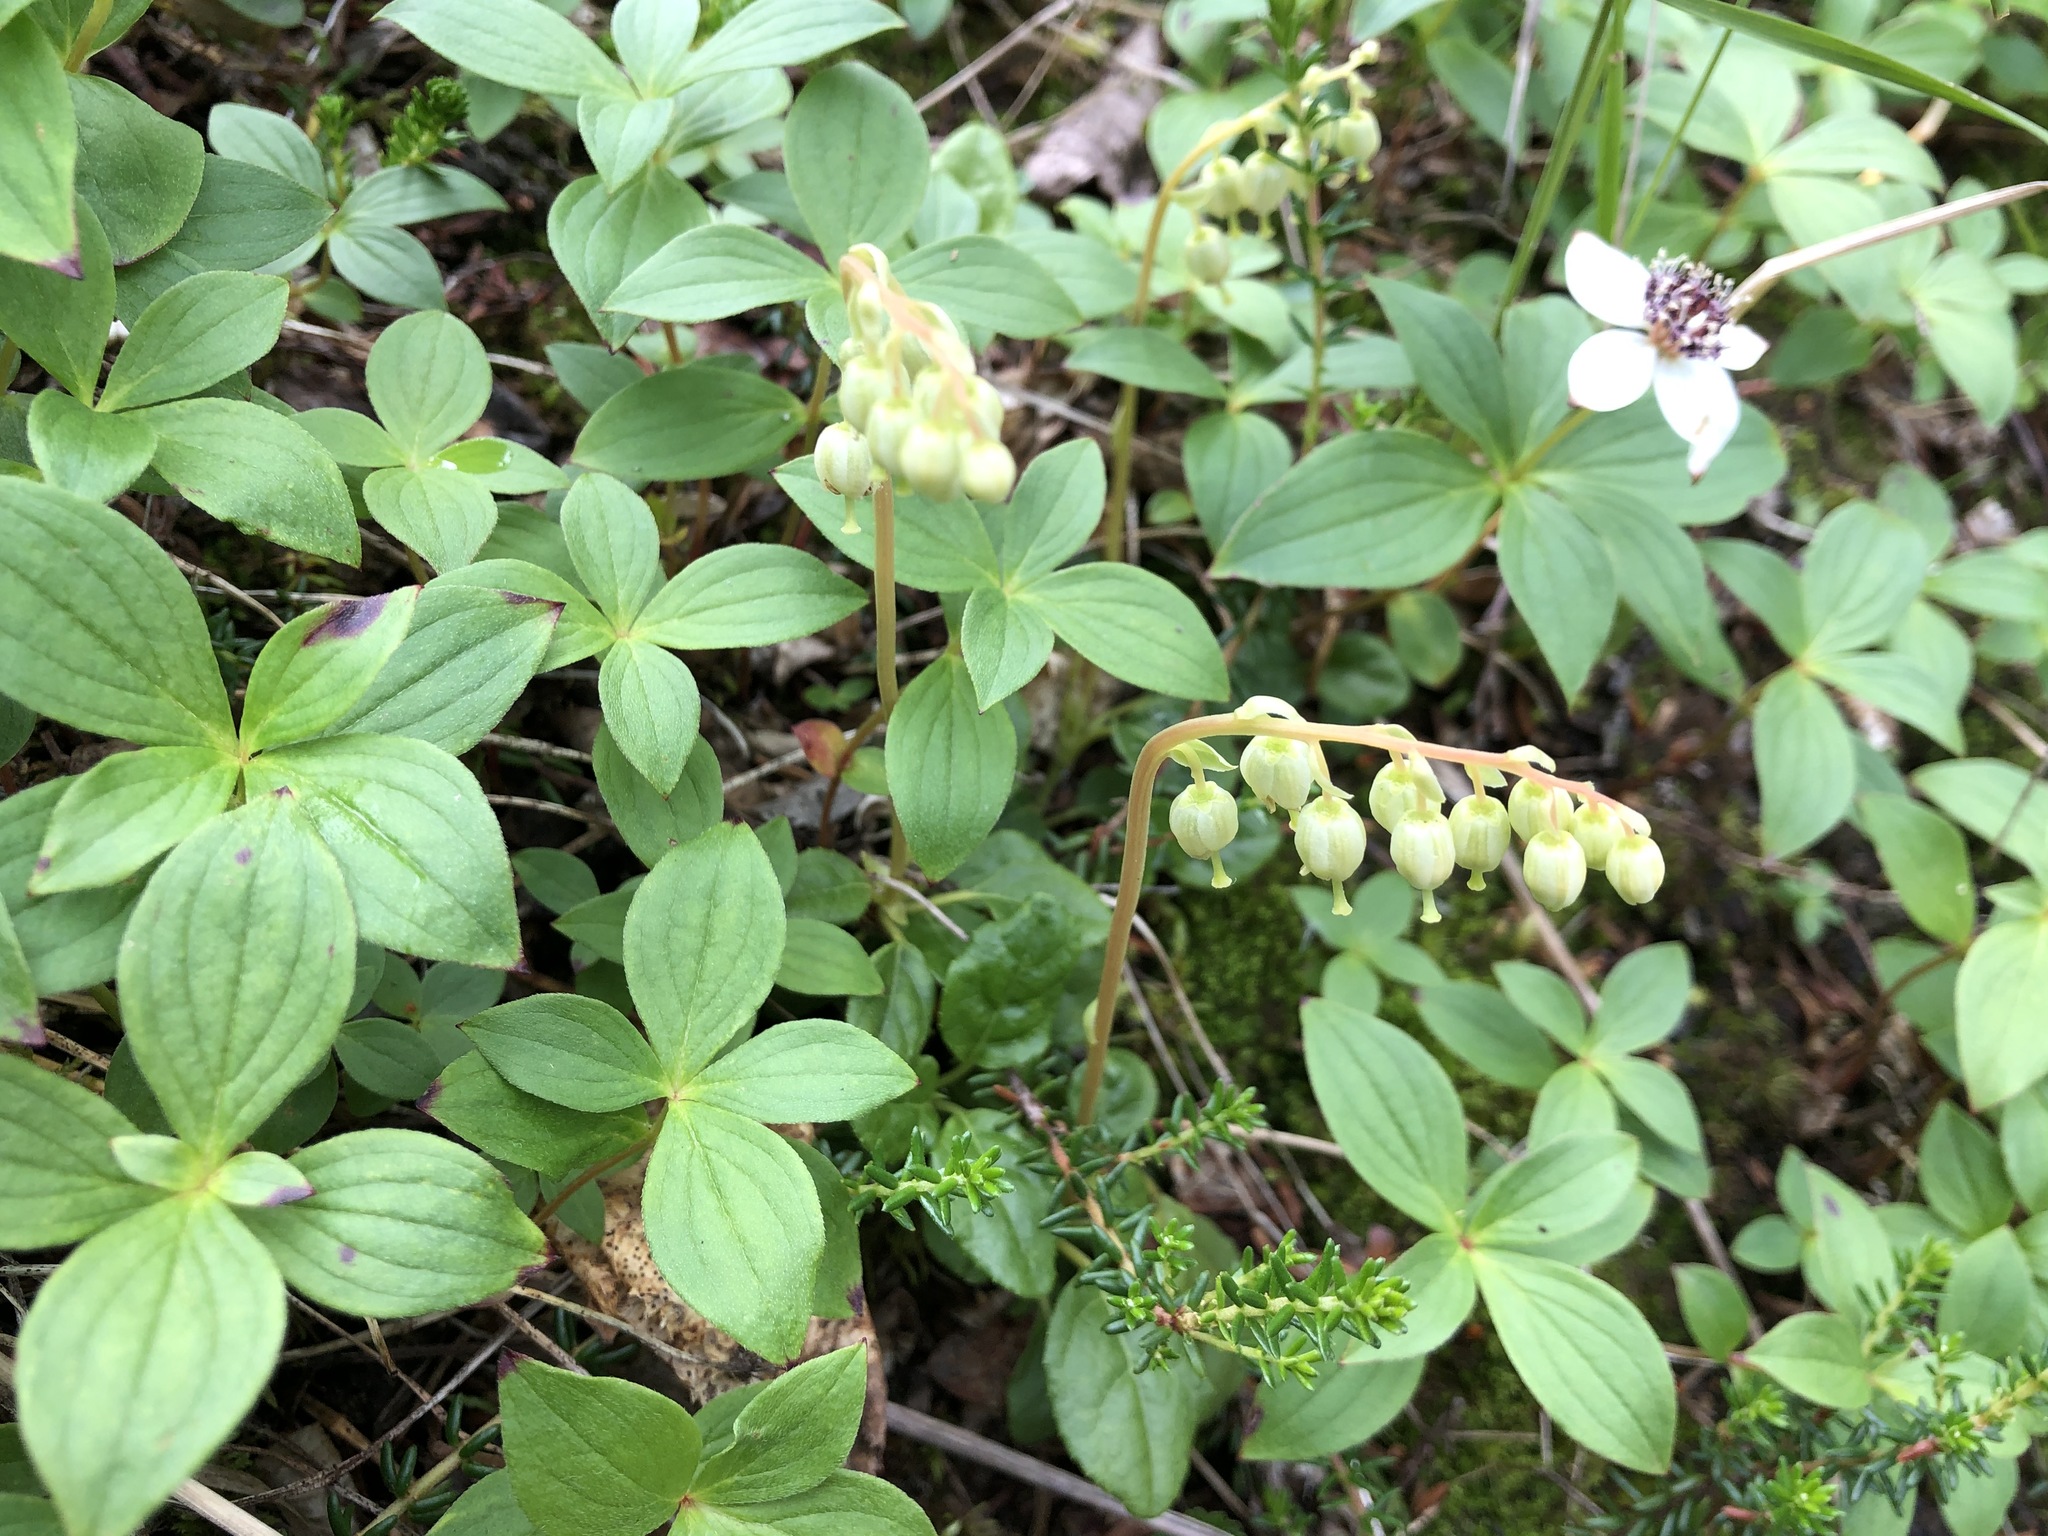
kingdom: Plantae
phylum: Tracheophyta
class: Magnoliopsida
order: Ericales
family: Ericaceae
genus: Orthilia
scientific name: Orthilia secunda
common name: One-sided orthilia
